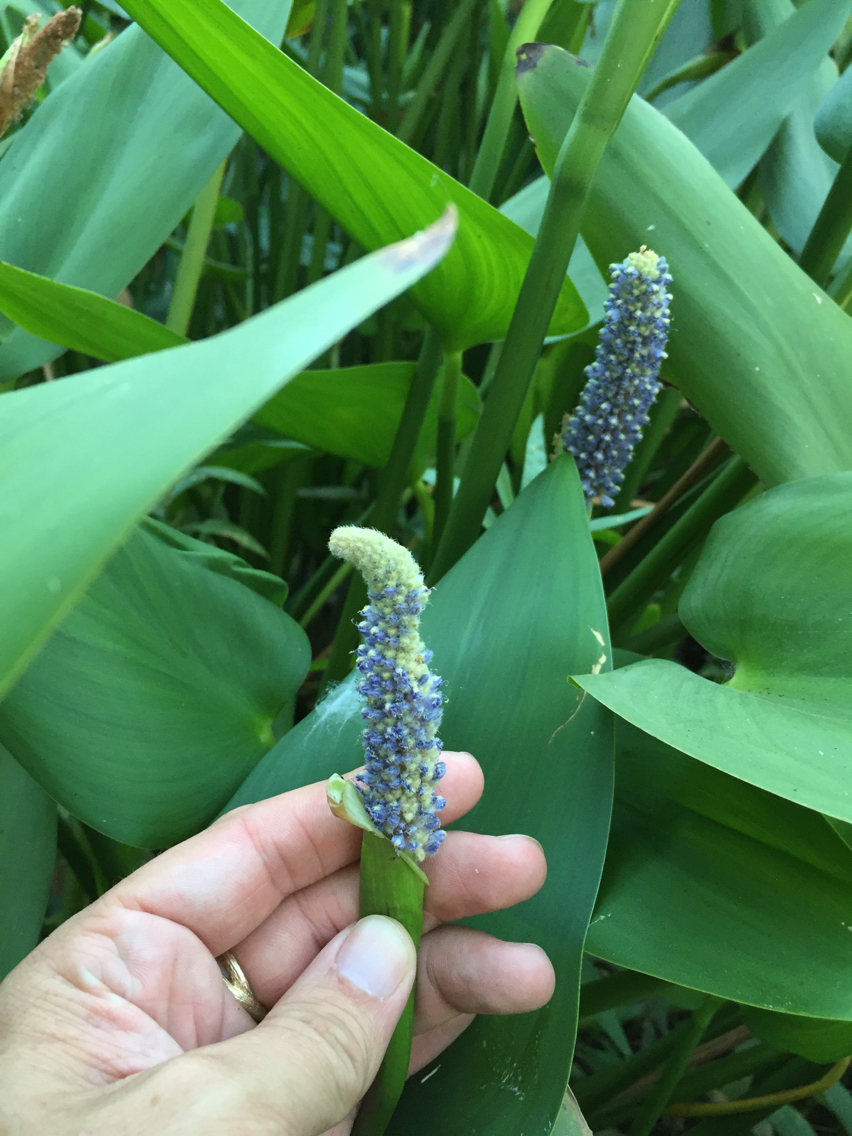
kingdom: Plantae
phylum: Tracheophyta
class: Liliopsida
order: Commelinales
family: Pontederiaceae
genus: Pontederia
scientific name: Pontederia cordata
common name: Pickerelweed
